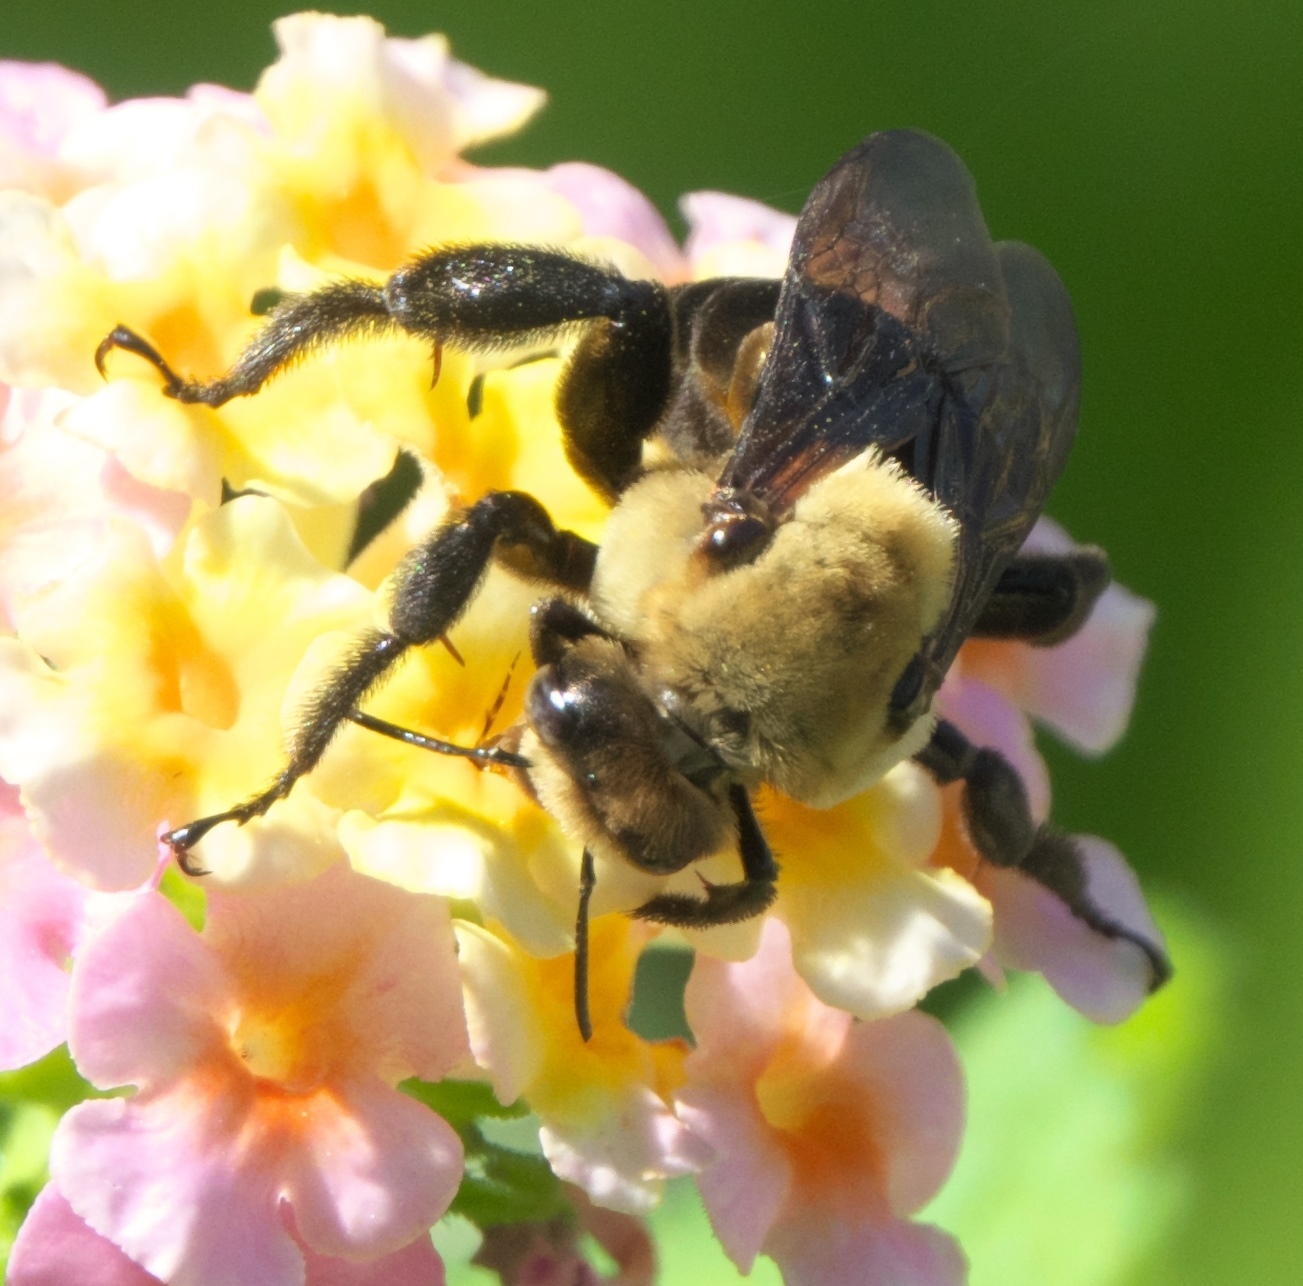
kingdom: Animalia
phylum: Arthropoda
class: Insecta
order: Hymenoptera
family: Apidae
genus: Ptilothrix
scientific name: Ptilothrix bombiformis
